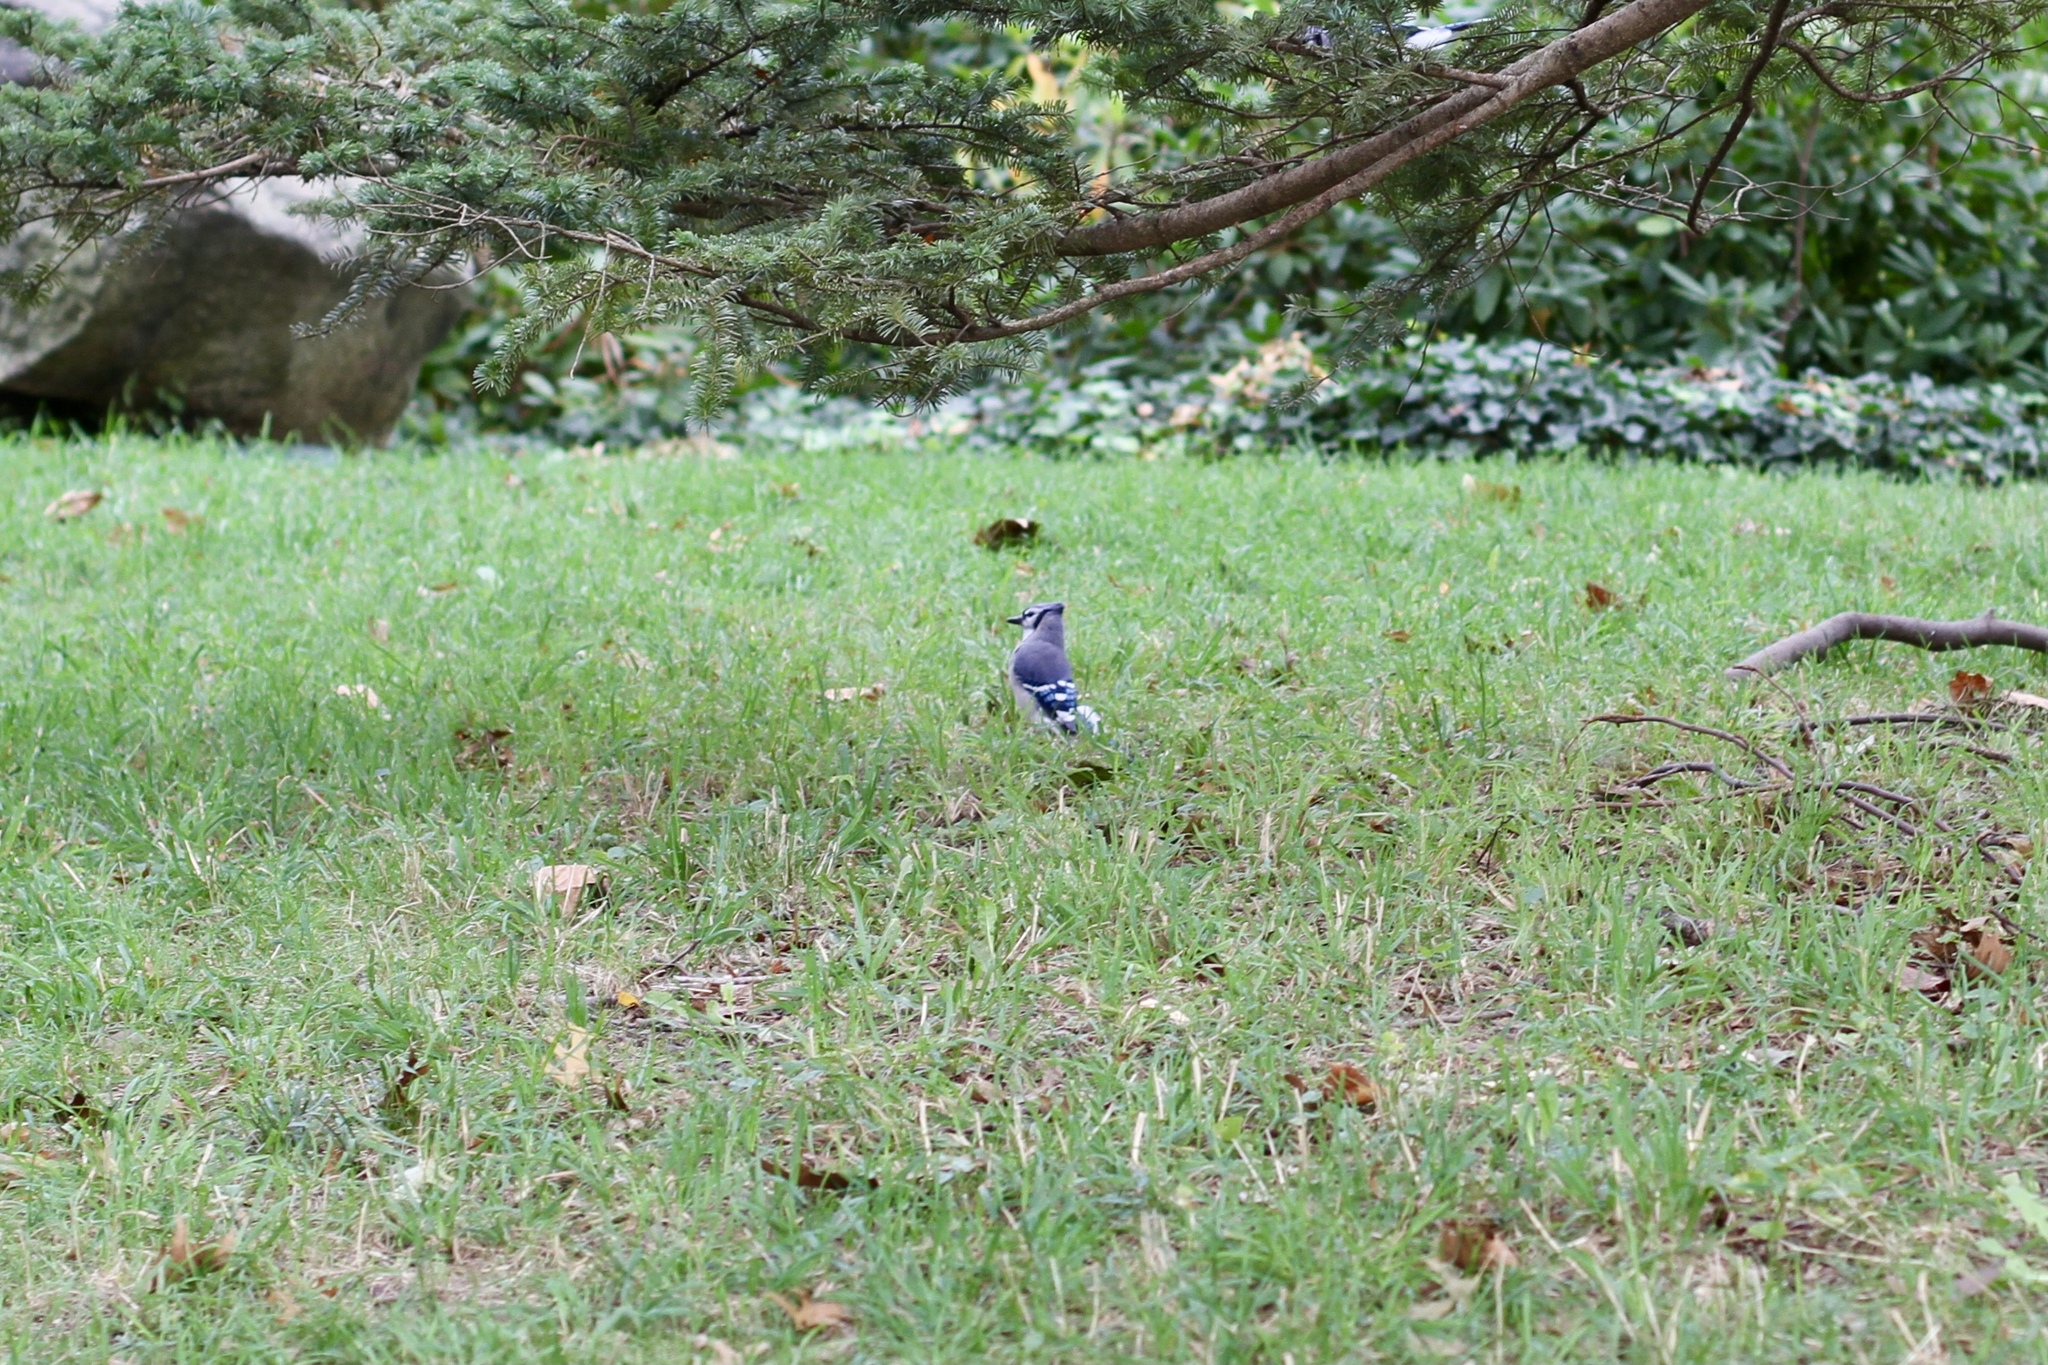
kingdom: Animalia
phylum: Chordata
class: Aves
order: Passeriformes
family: Corvidae
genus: Cyanocitta
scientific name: Cyanocitta cristata
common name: Blue jay
